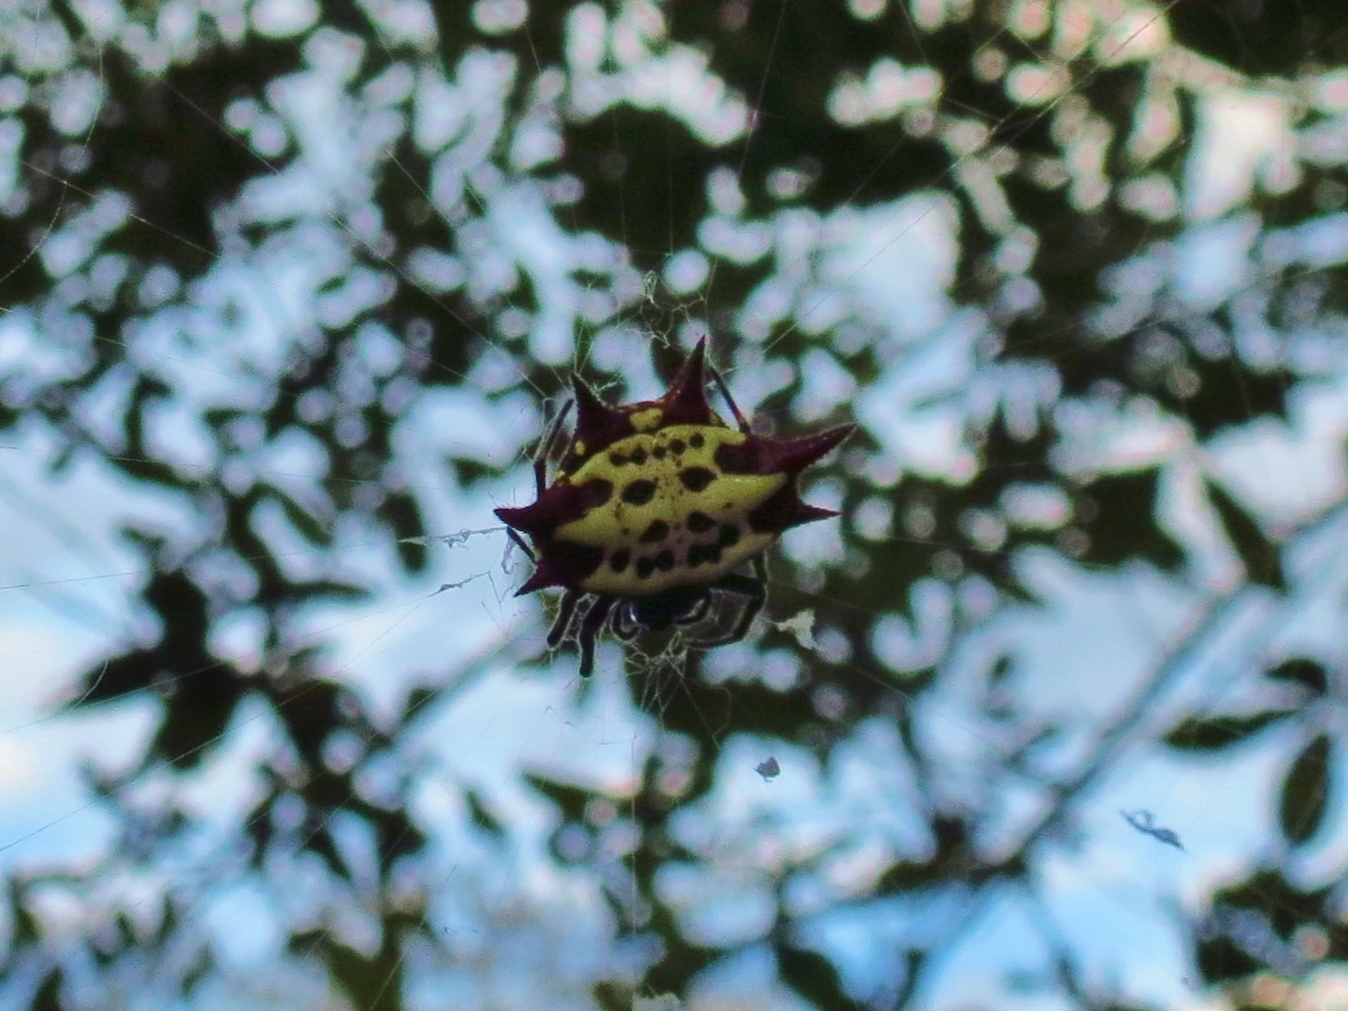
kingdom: Animalia
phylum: Arthropoda
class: Arachnida
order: Araneae
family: Araneidae
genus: Gasteracantha
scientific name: Gasteracantha cancriformis
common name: Orb weavers
